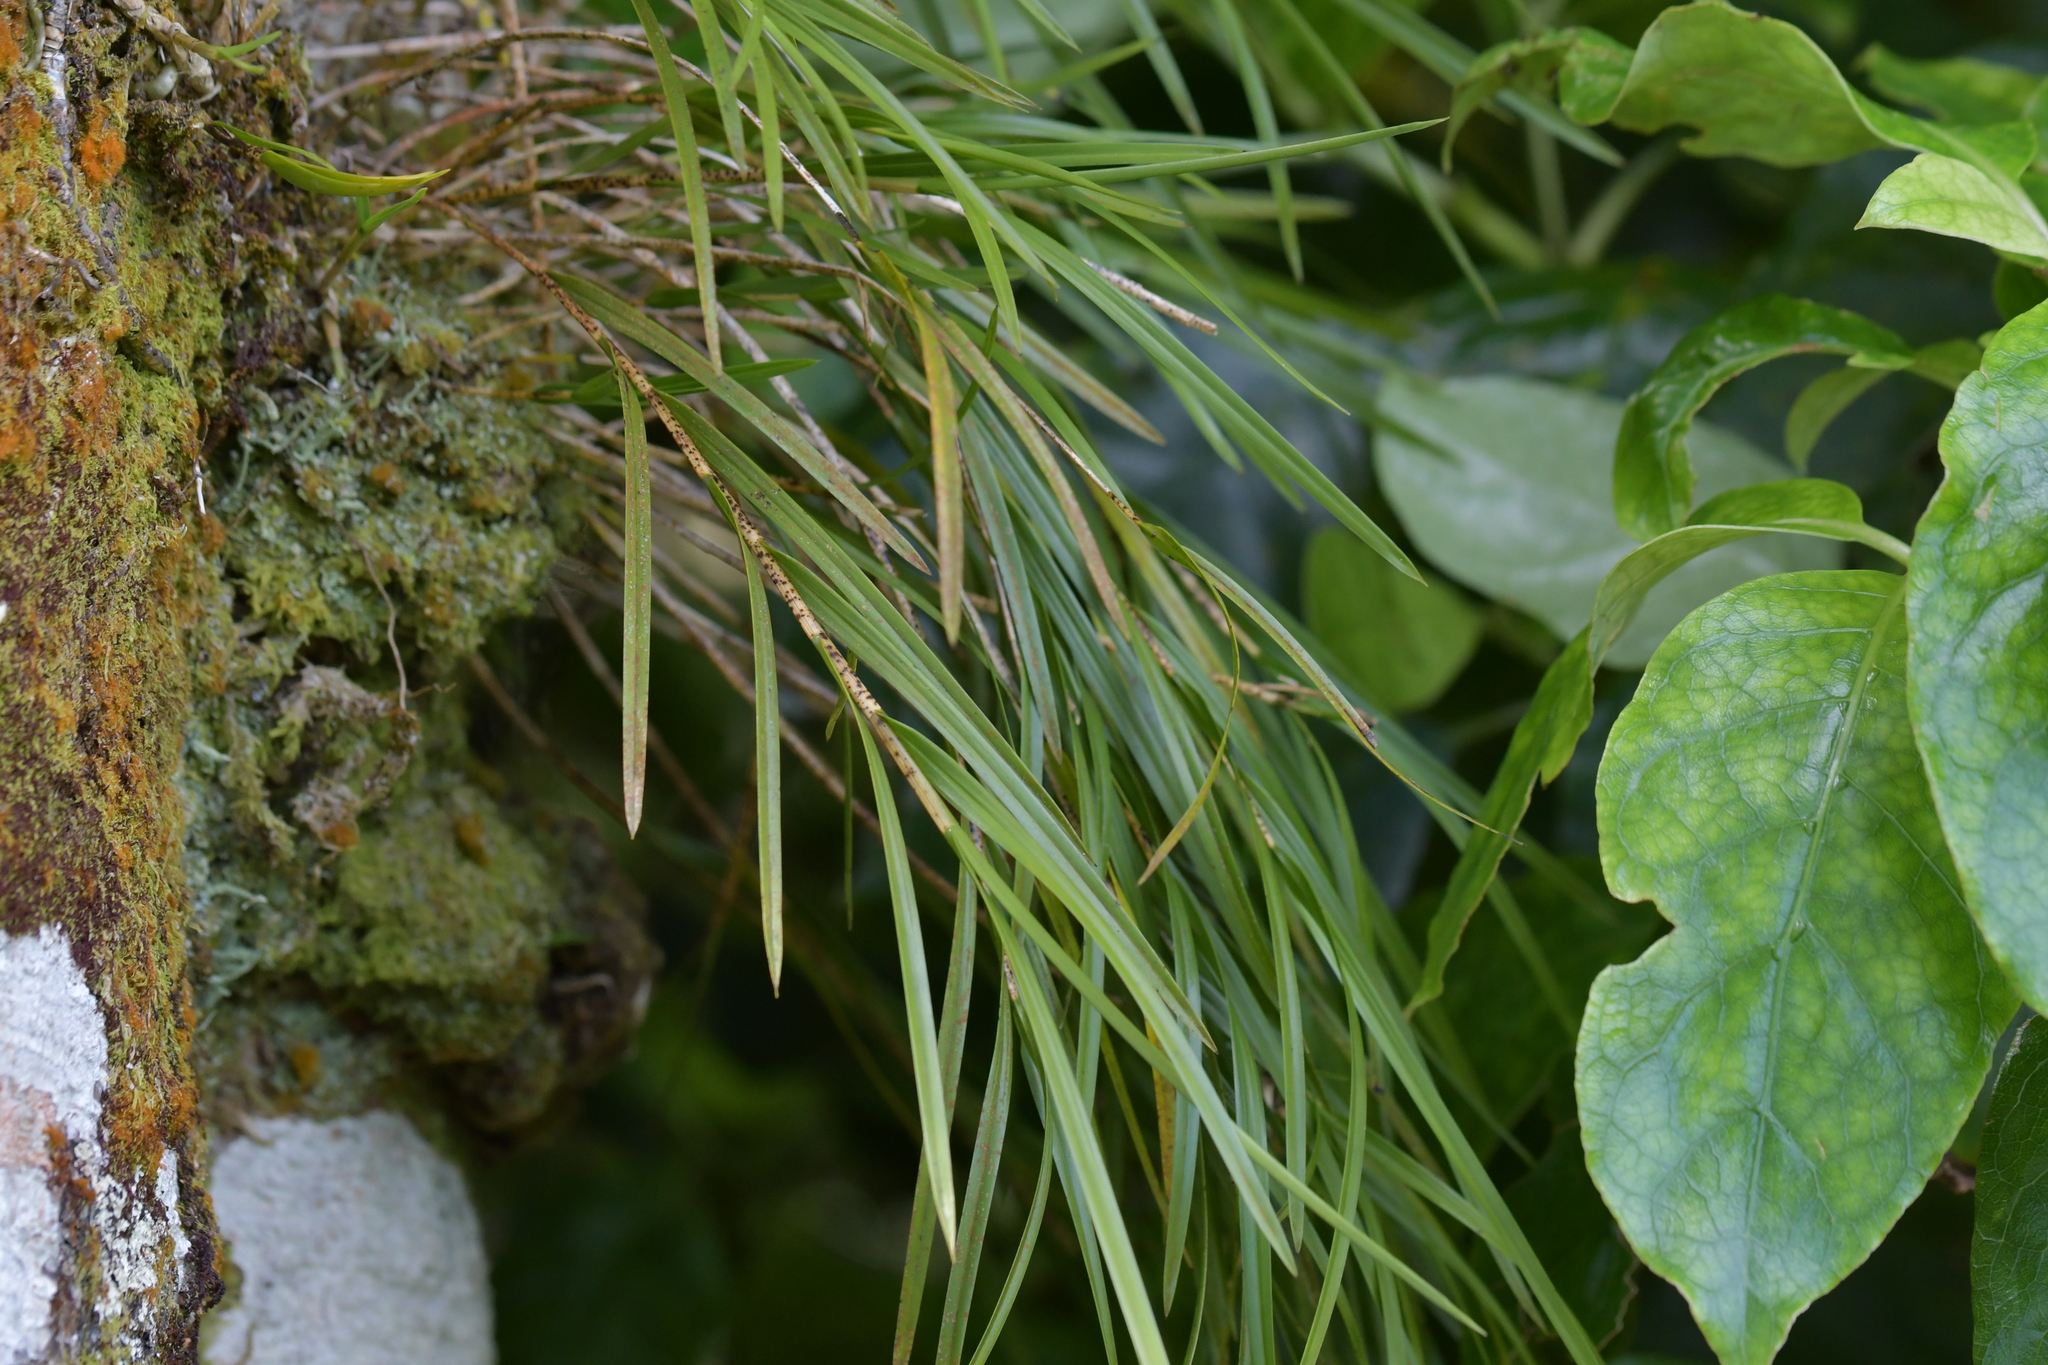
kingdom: Plantae
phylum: Tracheophyta
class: Liliopsida
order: Asparagales
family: Orchidaceae
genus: Earina
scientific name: Earina mucronata
